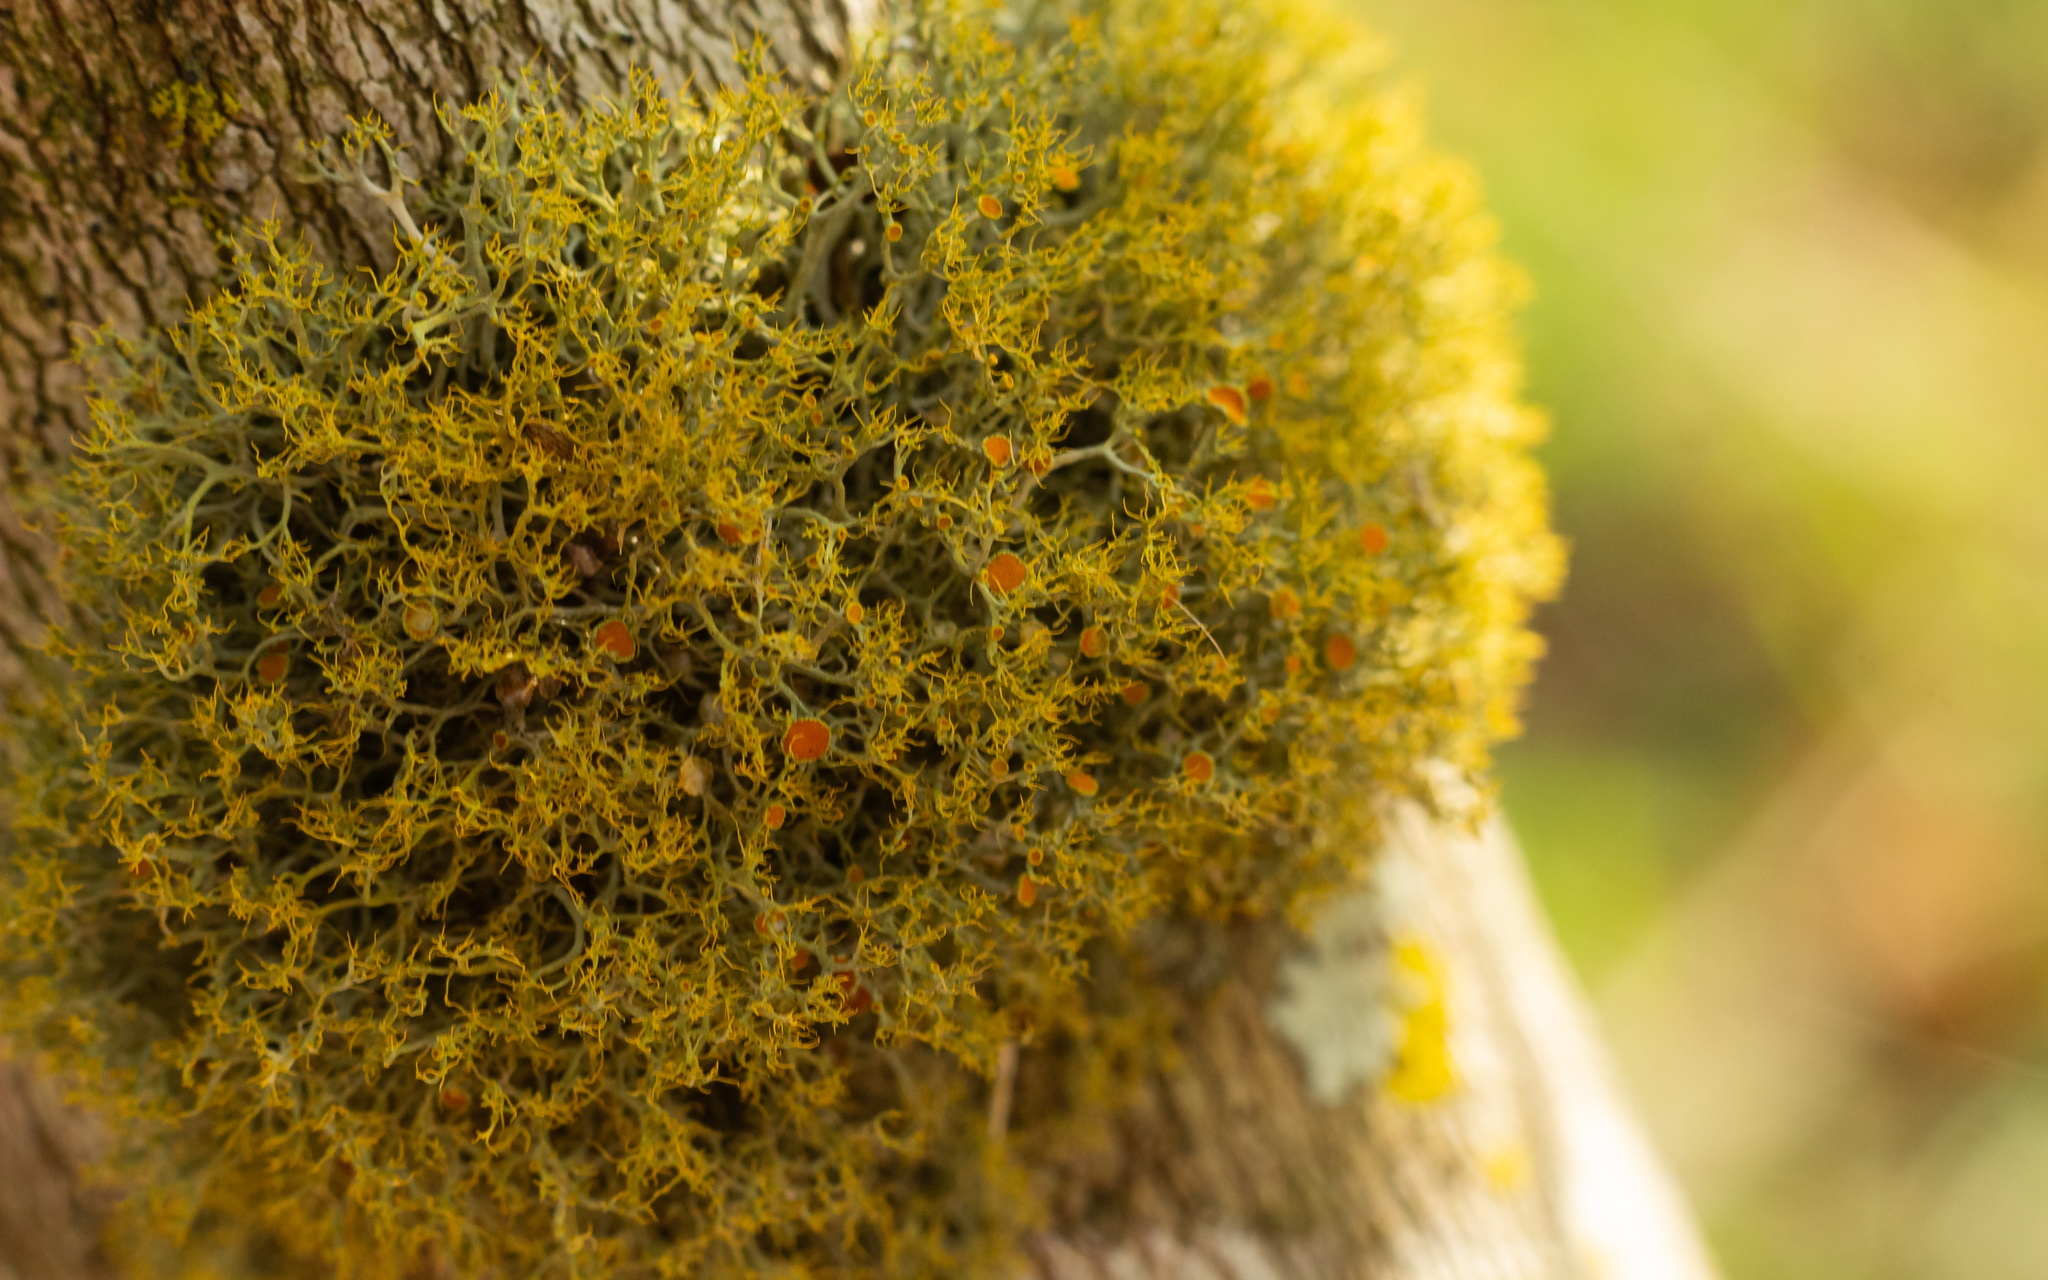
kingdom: Fungi
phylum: Ascomycota
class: Lecanoromycetes
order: Teloschistales
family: Teloschistaceae
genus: Teloschistes
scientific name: Teloschistes exilis
